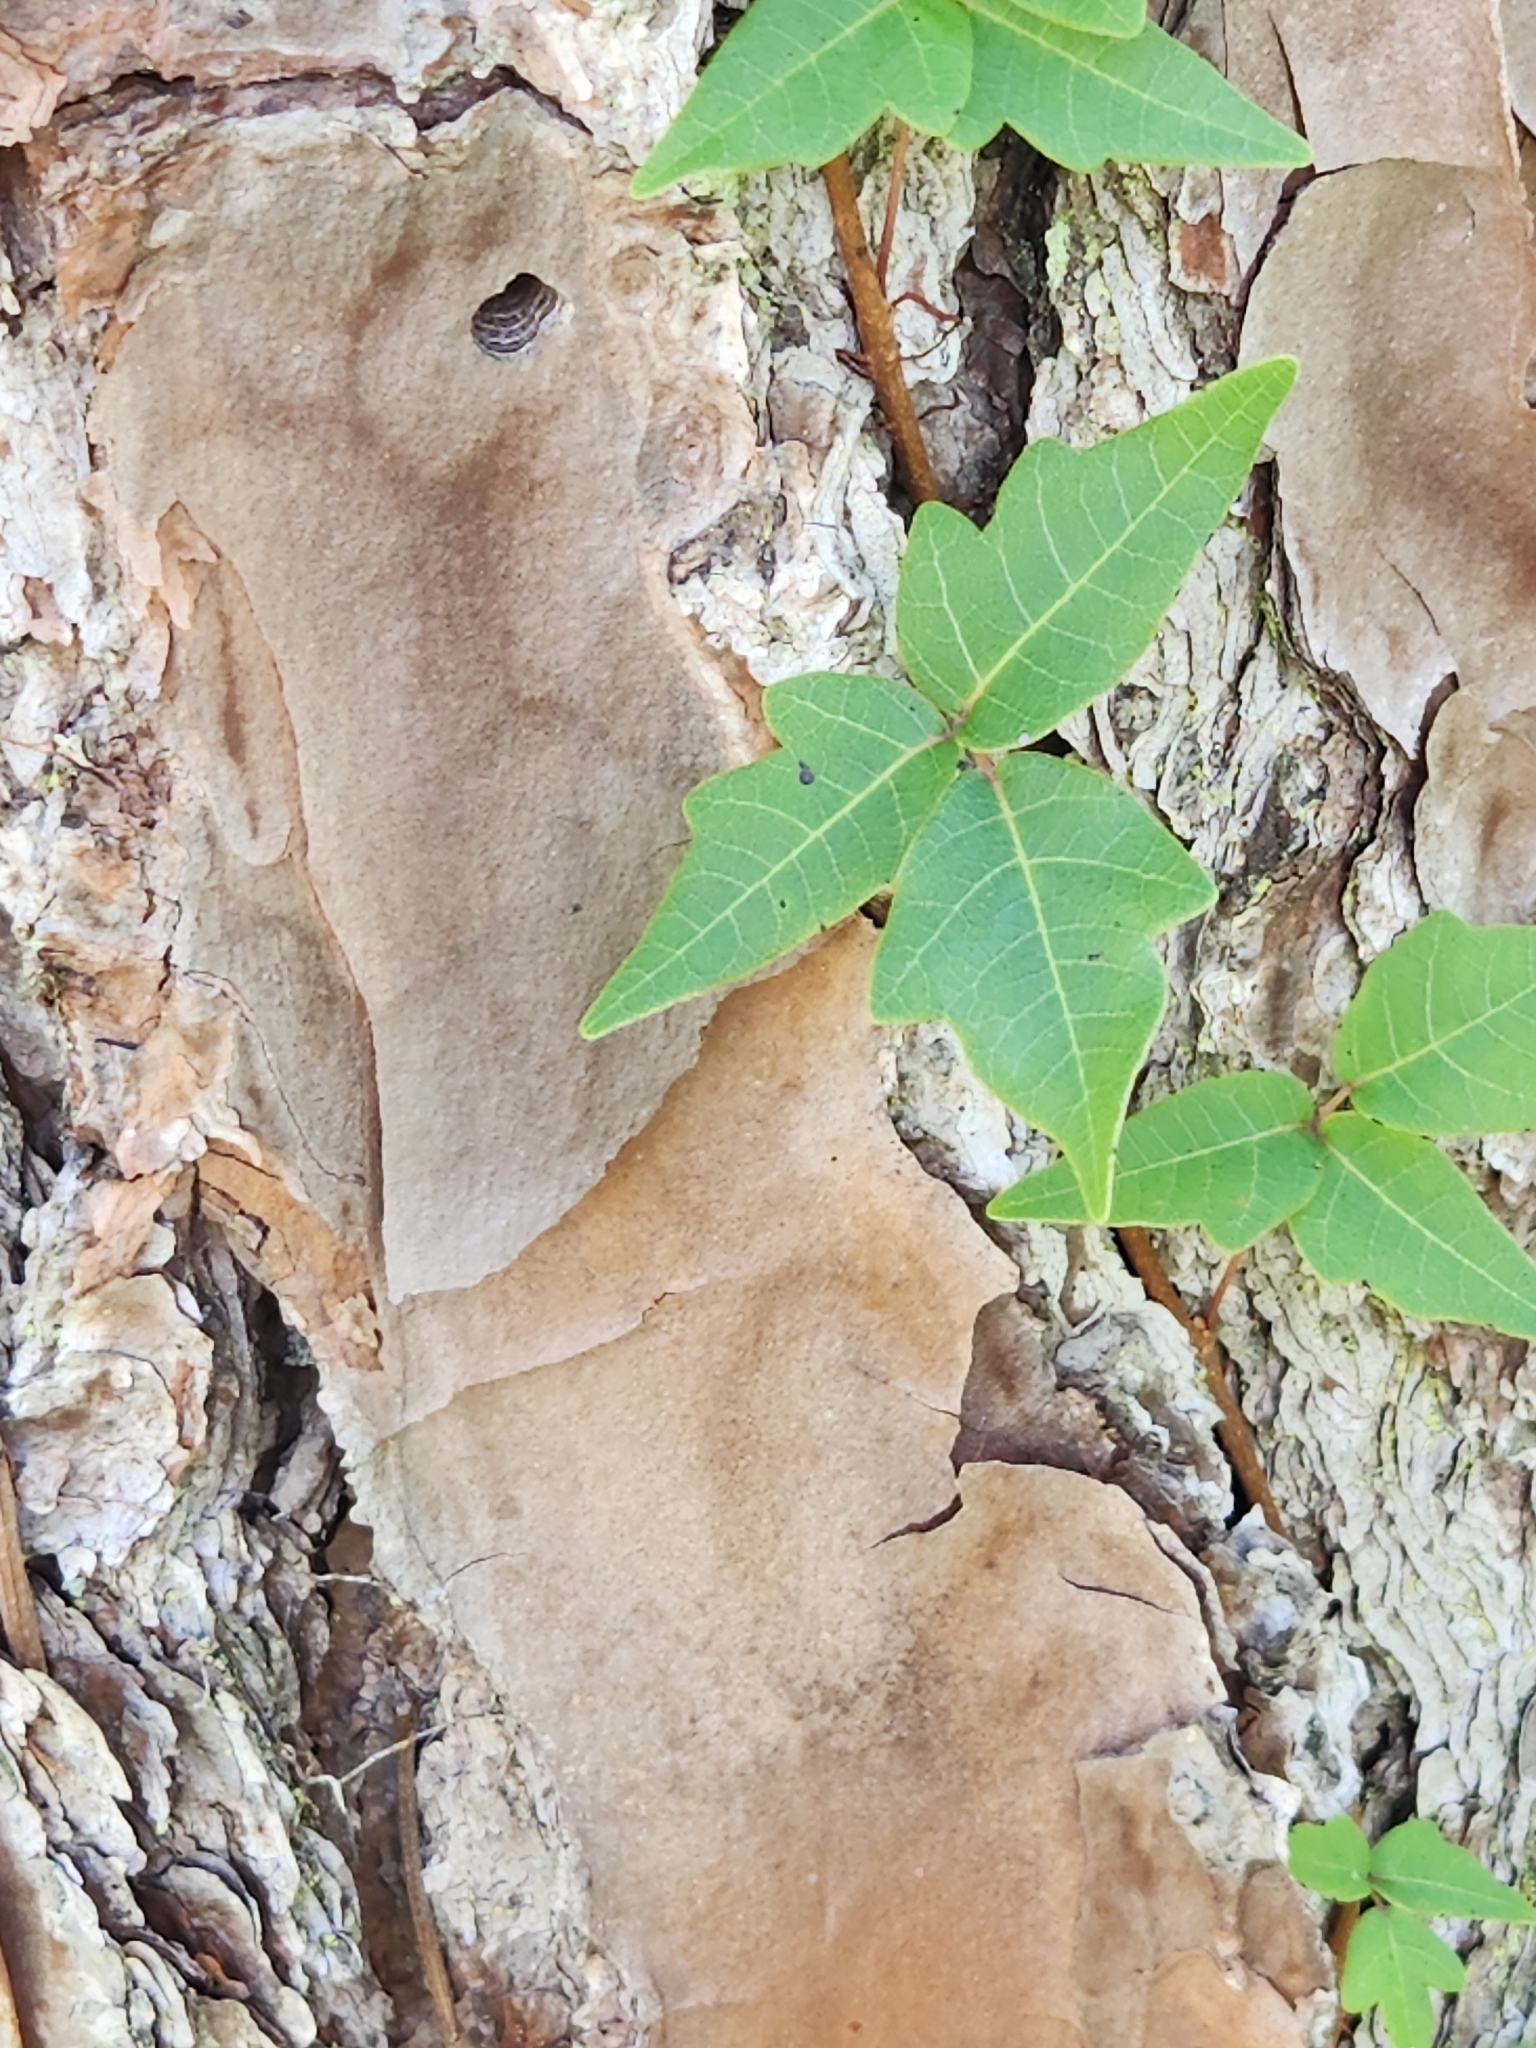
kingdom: Plantae
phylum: Tracheophyta
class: Magnoliopsida
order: Sapindales
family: Anacardiaceae
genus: Toxicodendron
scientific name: Toxicodendron radicans
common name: Poison ivy
